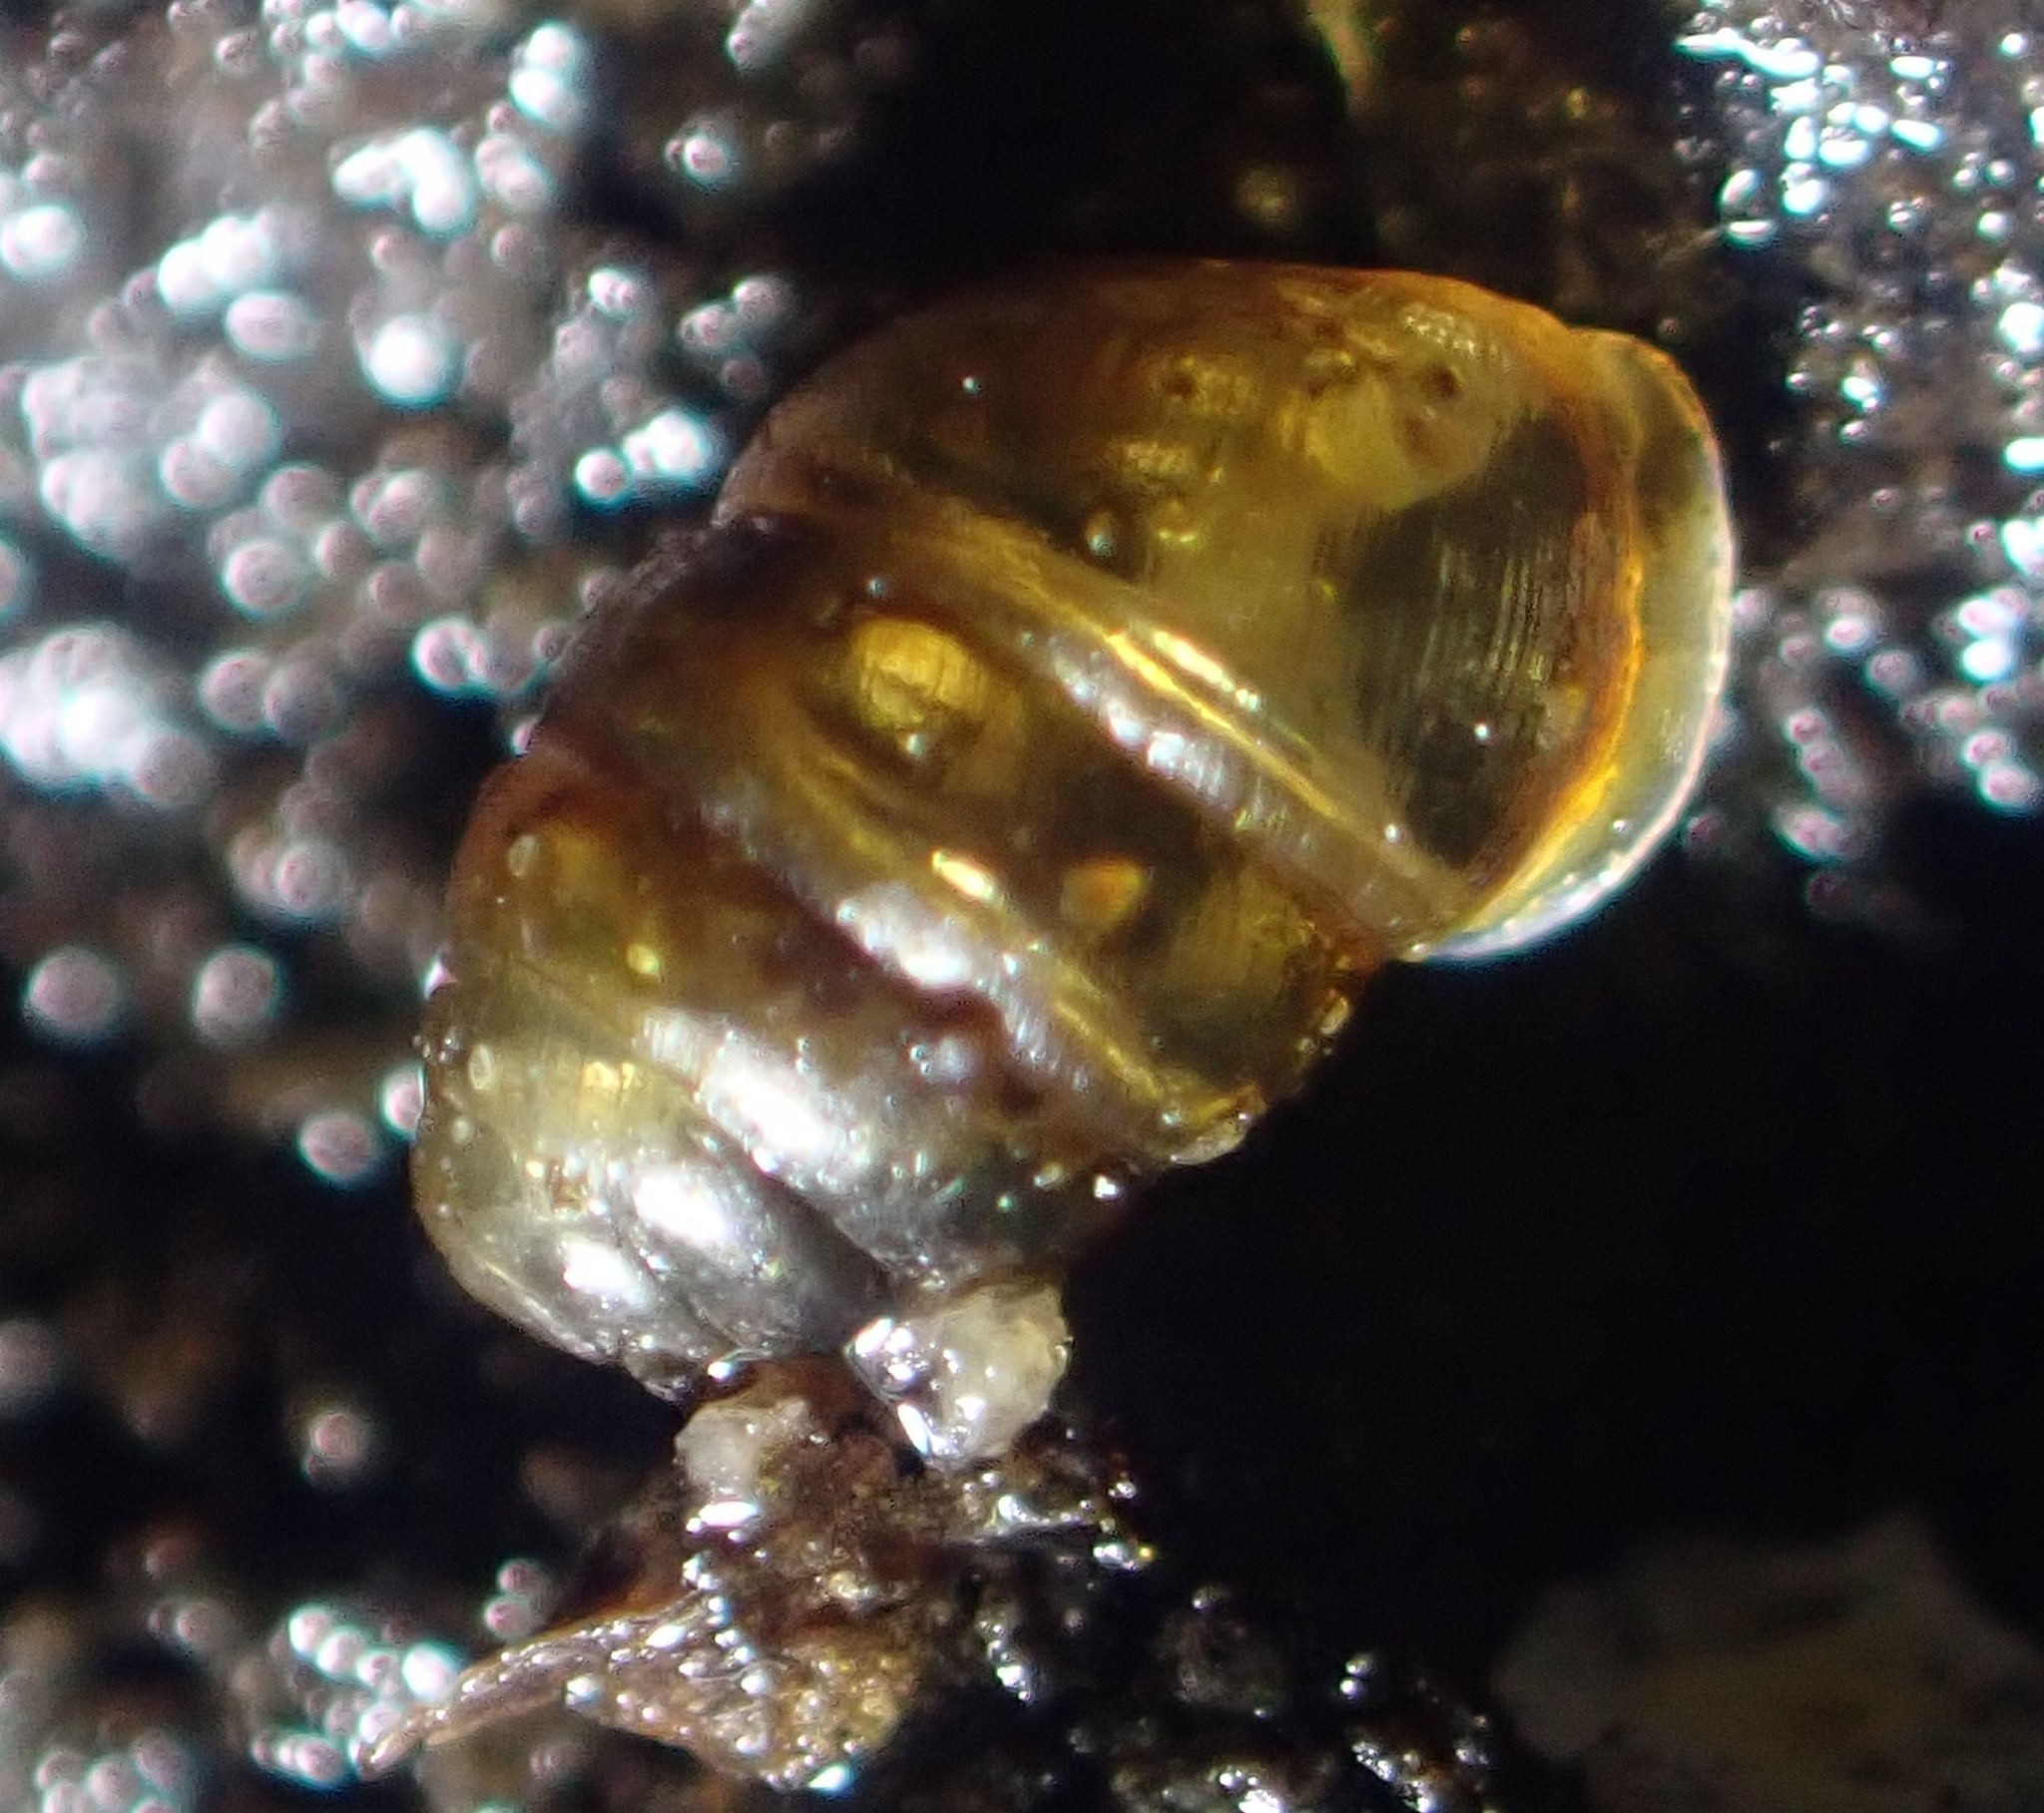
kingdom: Animalia
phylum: Mollusca
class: Gastropoda
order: Stylommatophora
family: Lauriidae
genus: Lauria
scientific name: Lauria cylindracea
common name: Common chrysalis snail
